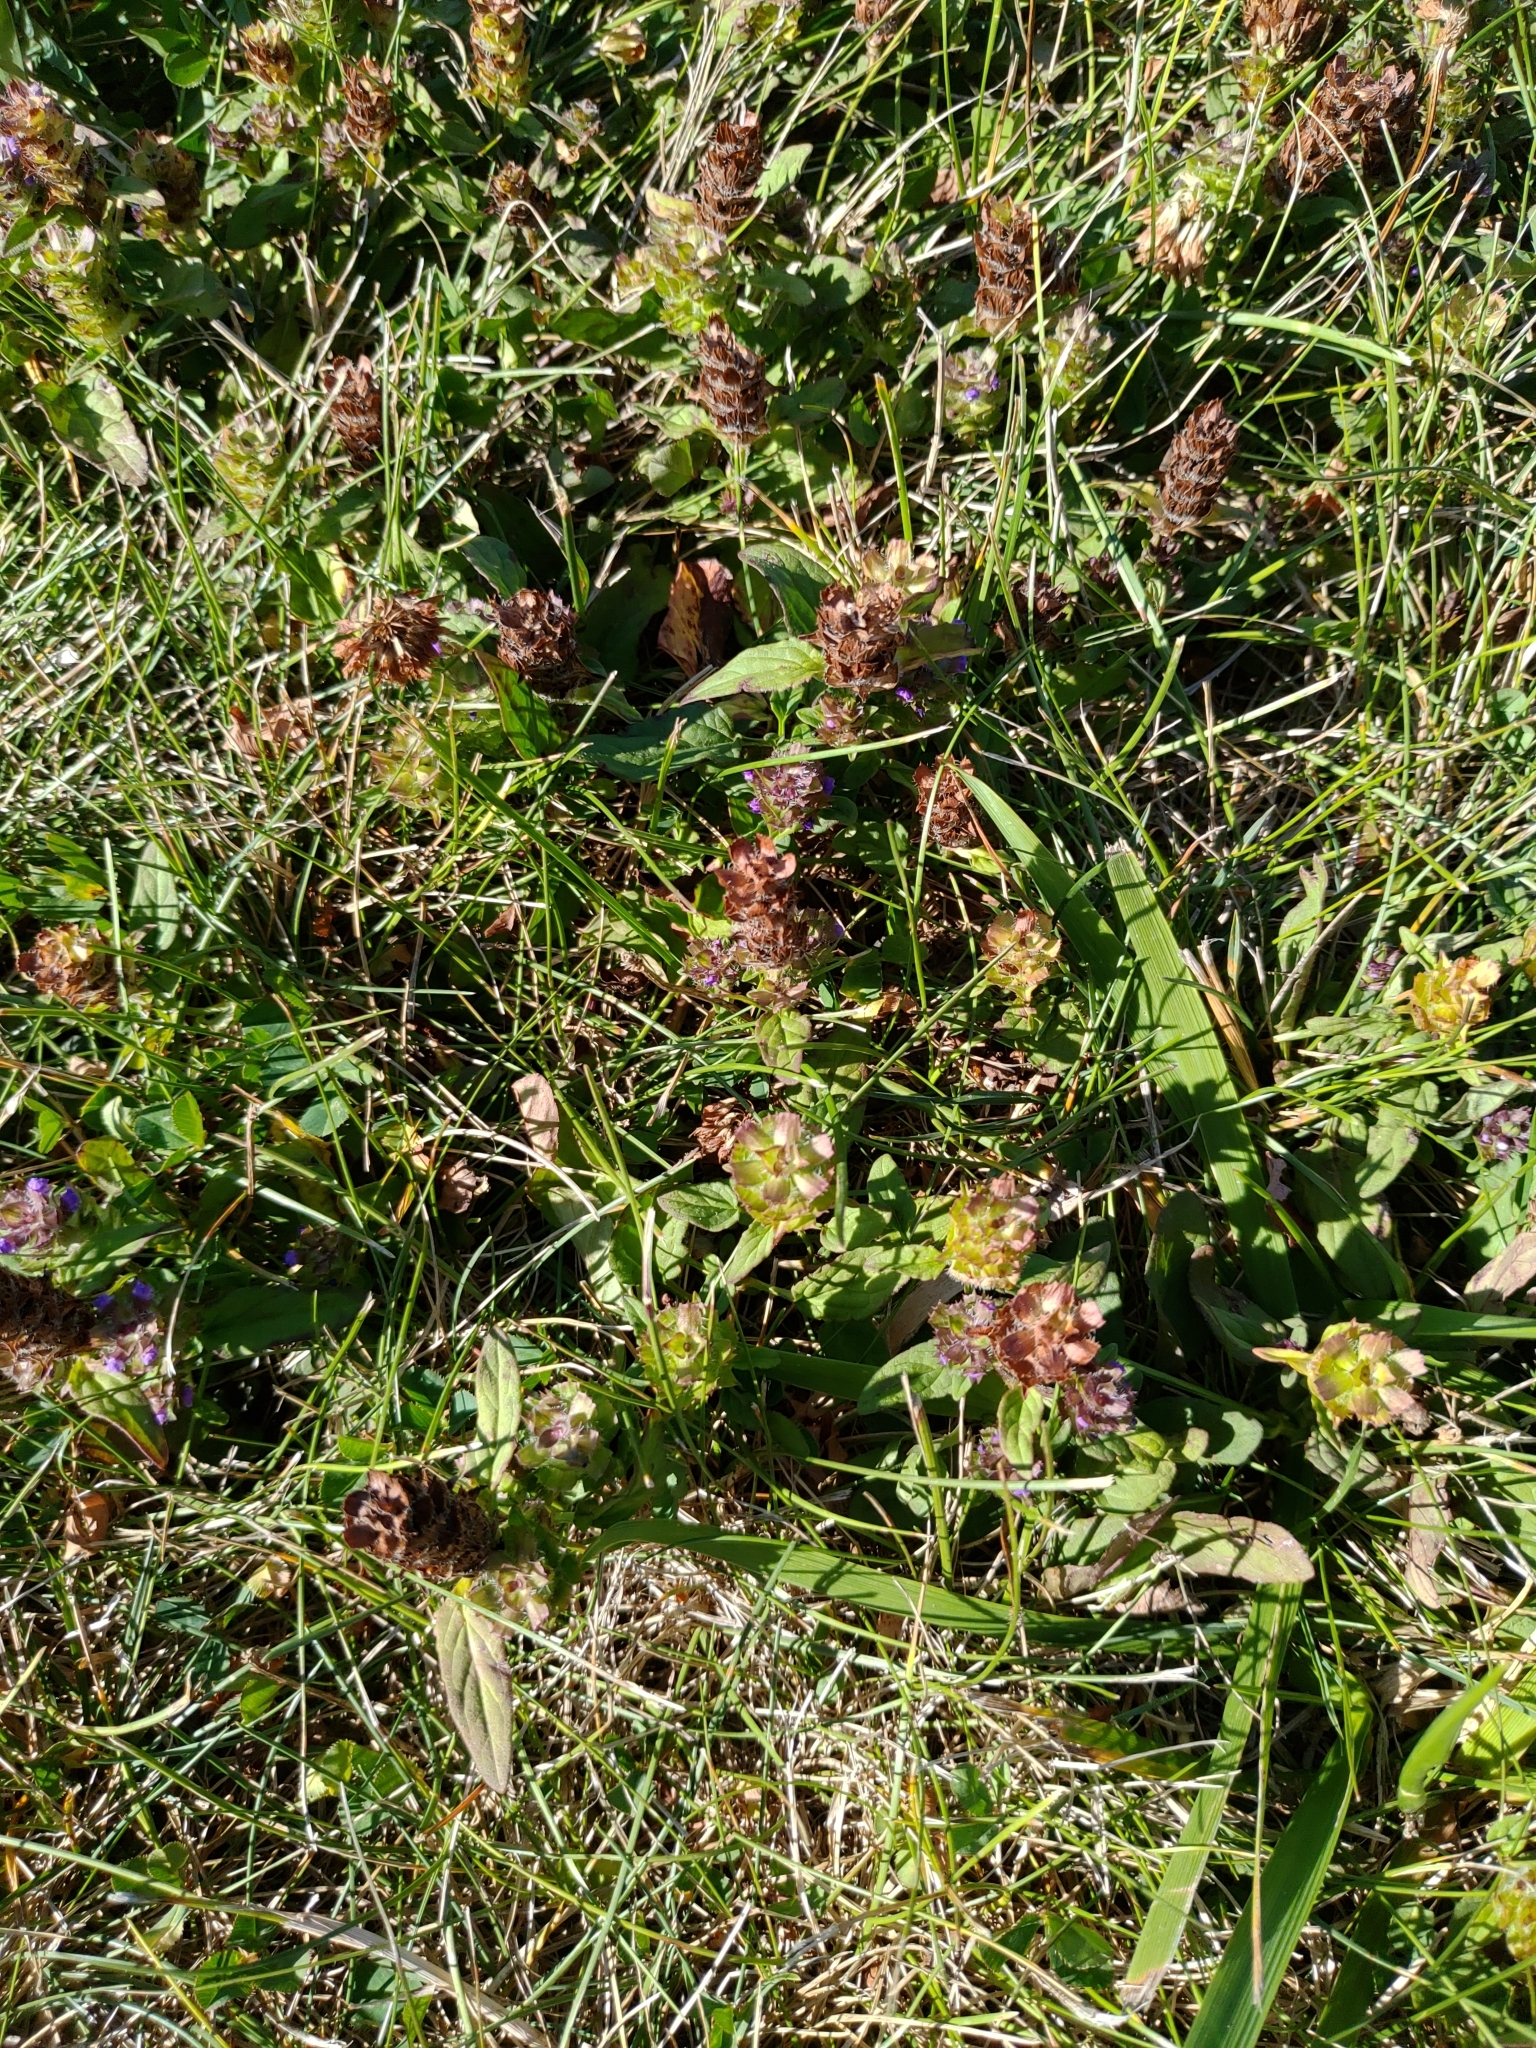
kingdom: Plantae
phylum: Tracheophyta
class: Magnoliopsida
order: Lamiales
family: Lamiaceae
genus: Prunella
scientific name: Prunella vulgaris
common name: Heal-all
